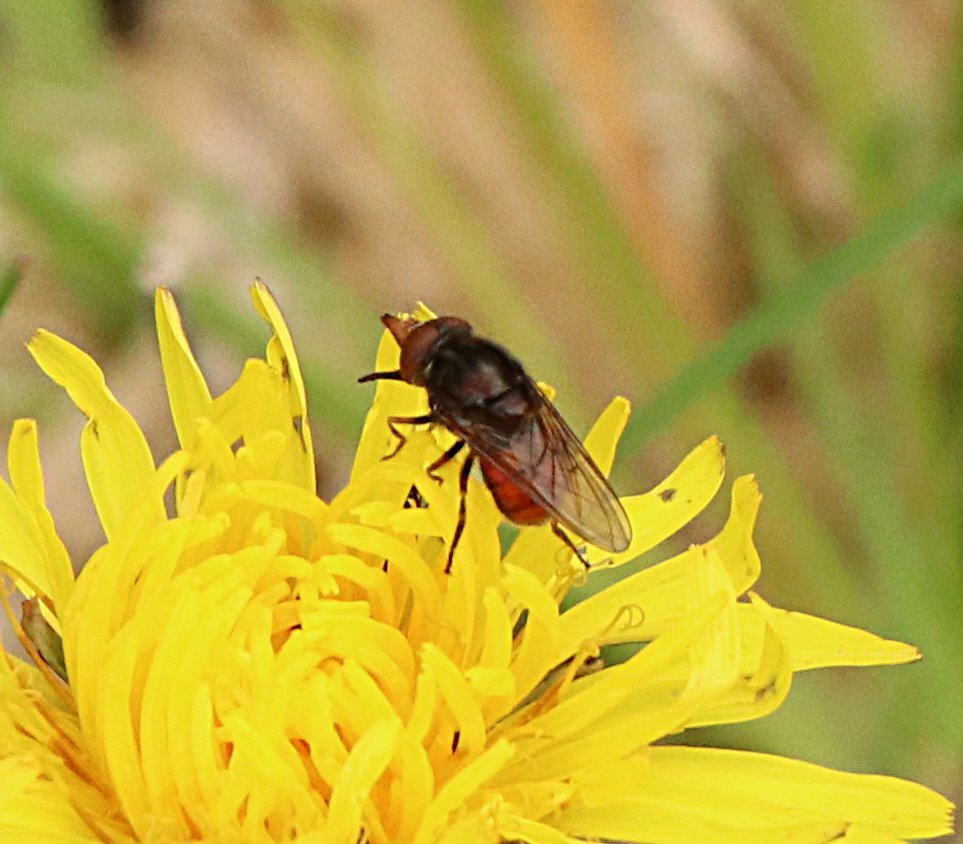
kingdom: Animalia
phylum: Arthropoda
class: Insecta
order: Diptera
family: Syrphidae
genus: Rhingia
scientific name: Rhingia campestris
